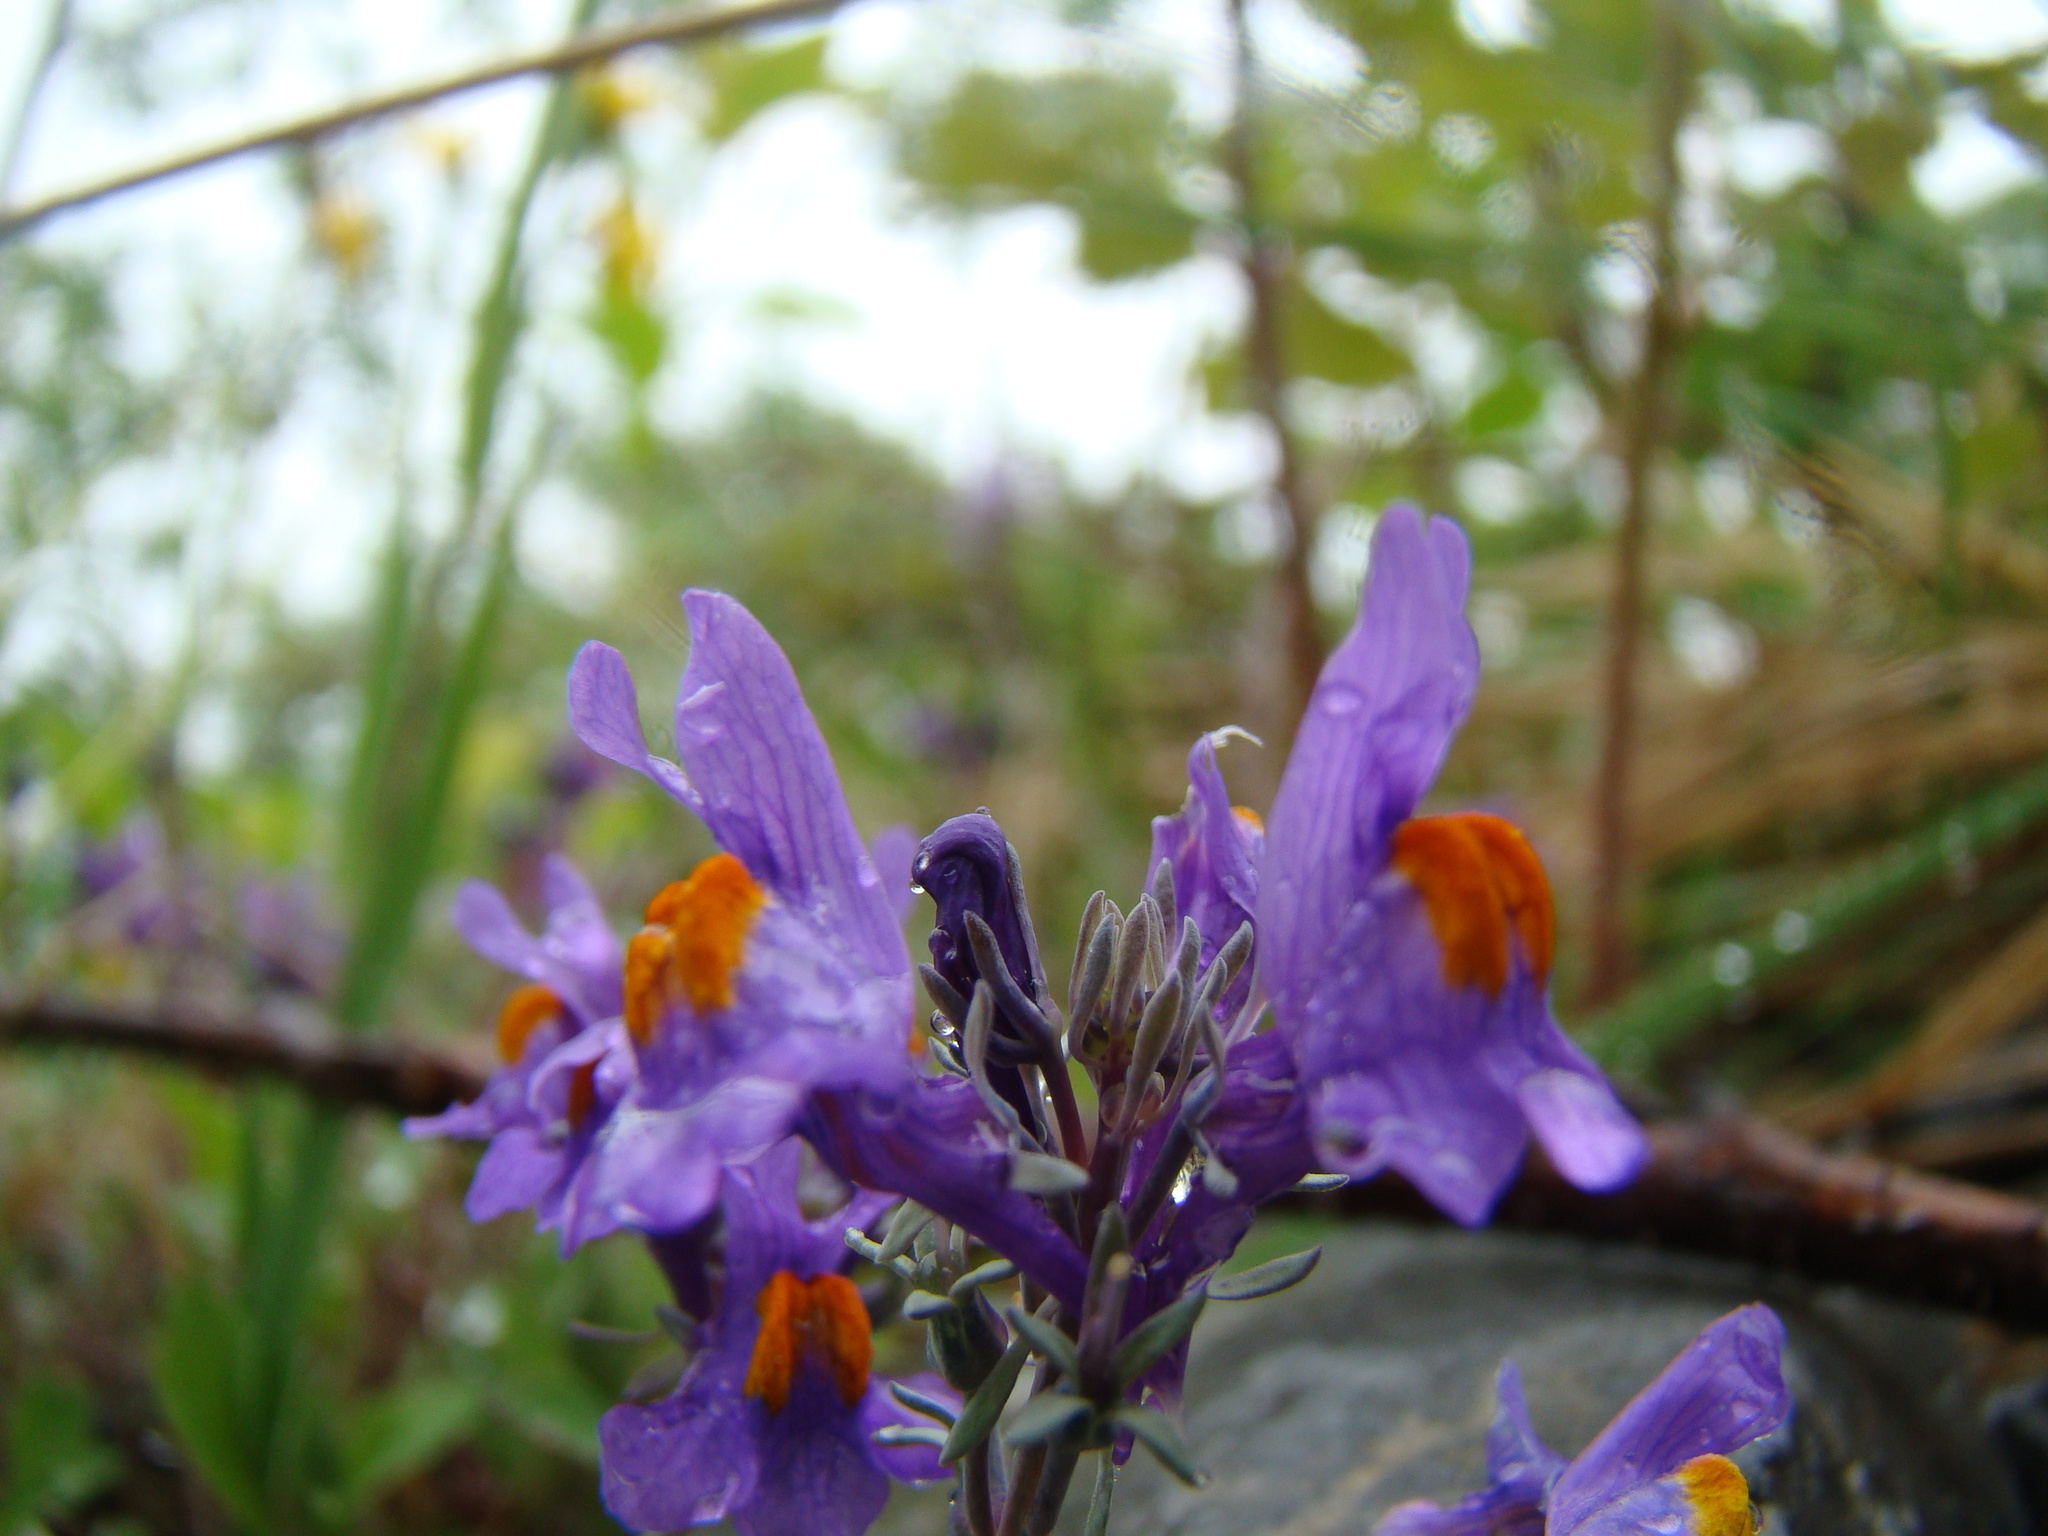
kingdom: Plantae
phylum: Tracheophyta
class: Magnoliopsida
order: Lamiales
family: Plantaginaceae
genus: Linaria
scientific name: Linaria alpina
